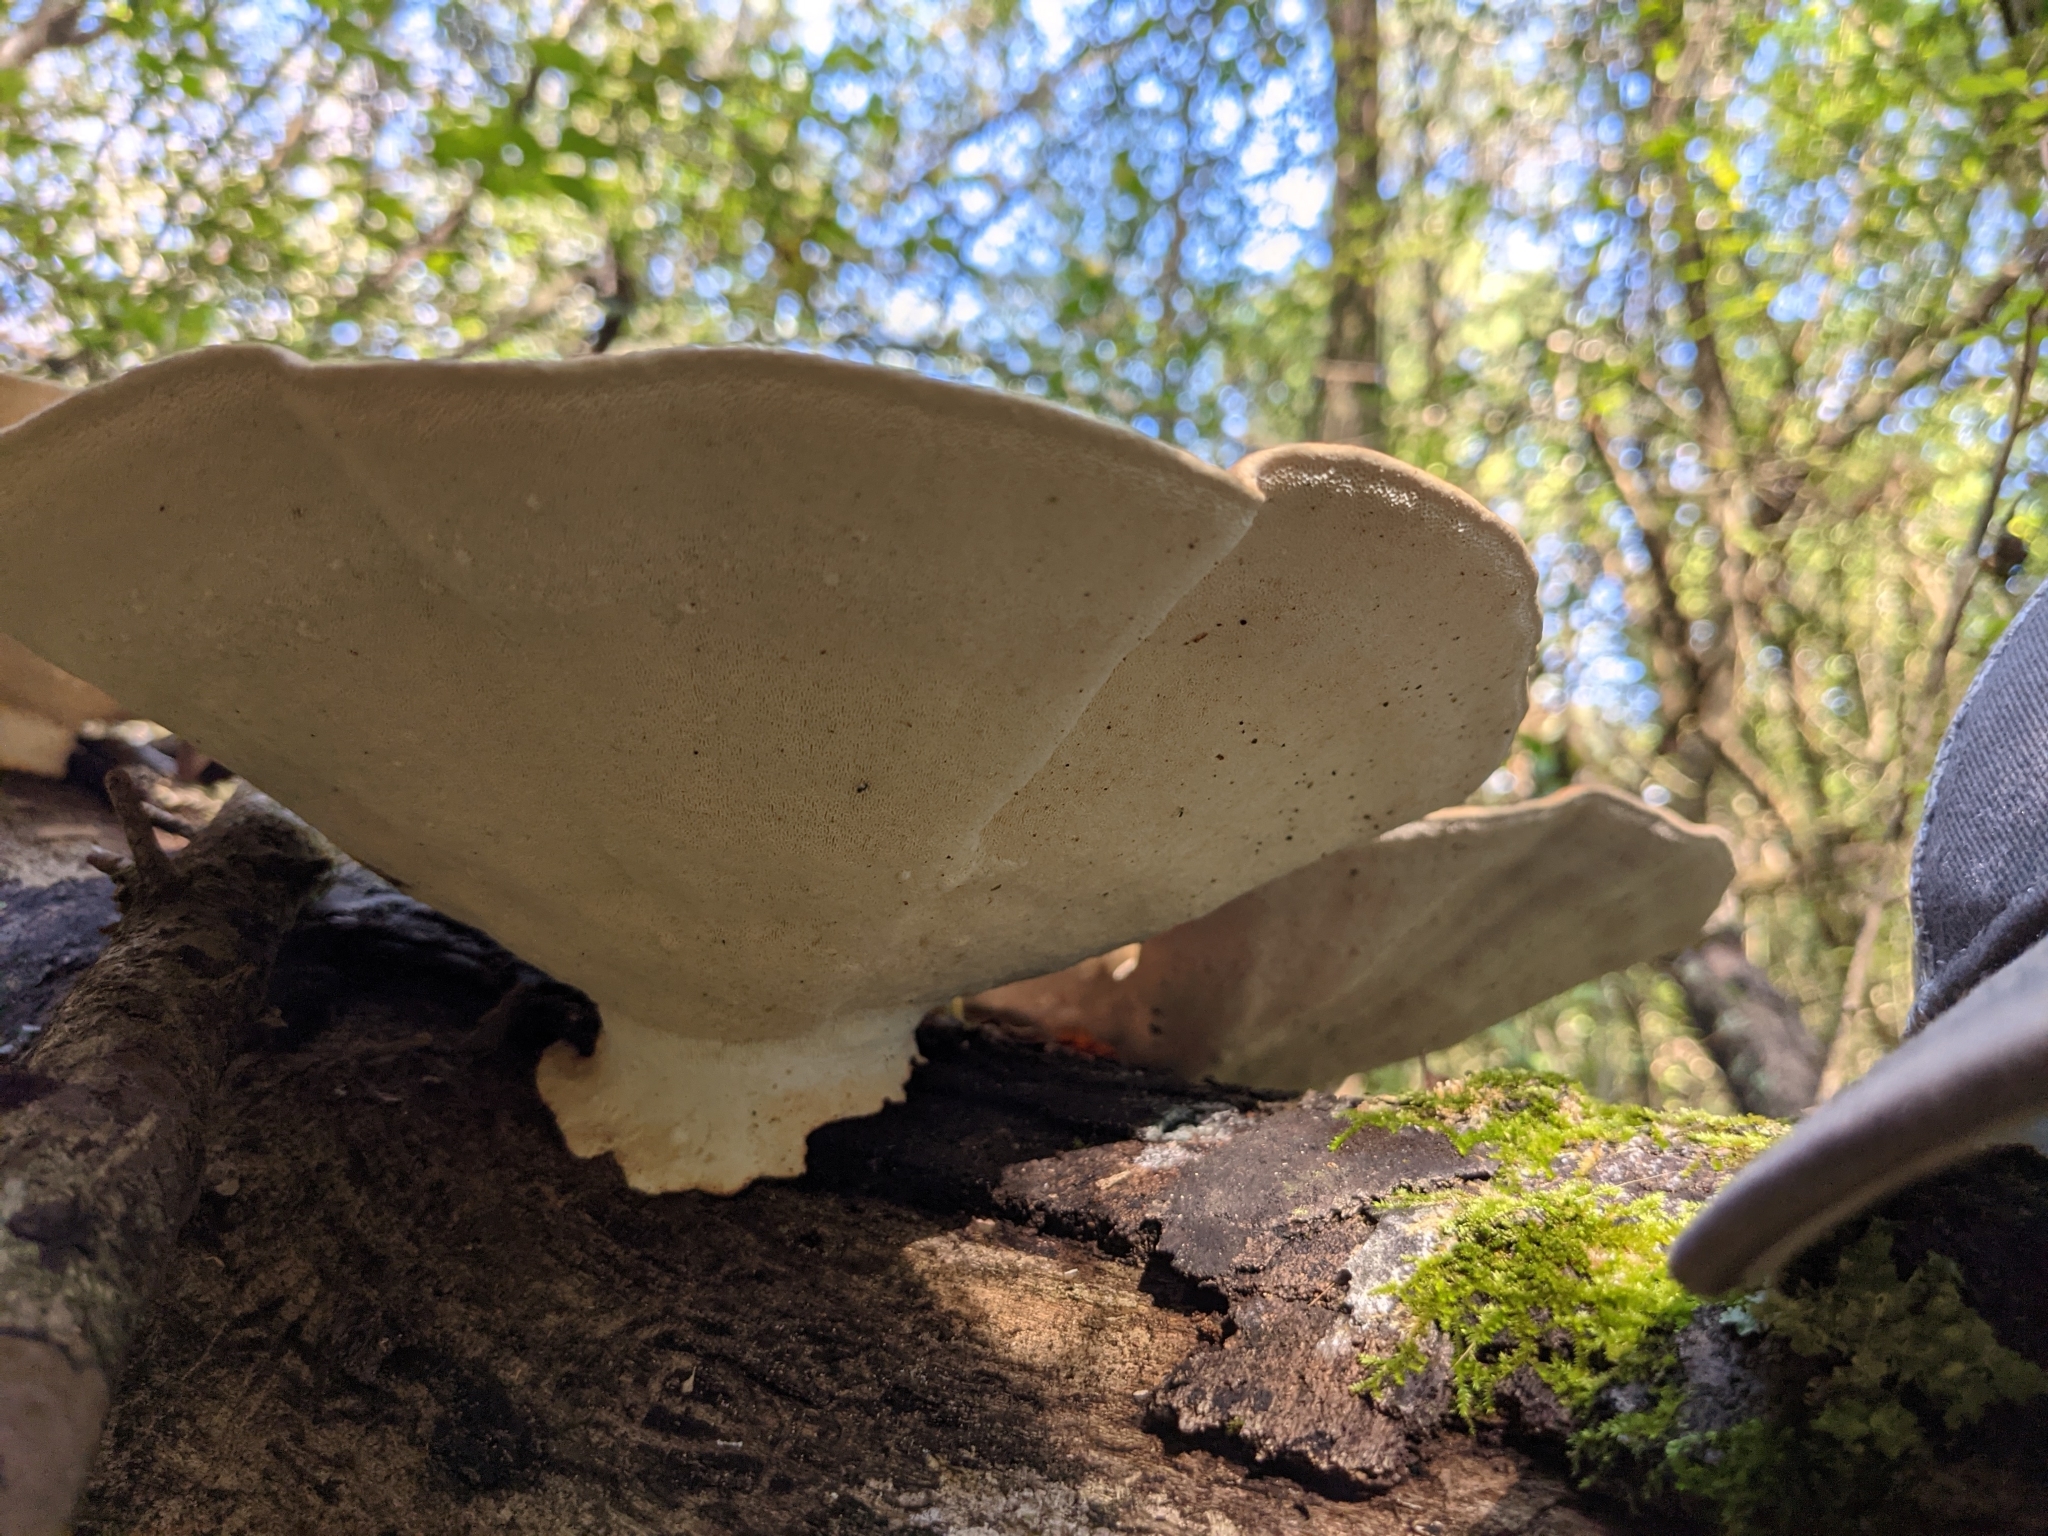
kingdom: Fungi
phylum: Basidiomycota
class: Agaricomycetes
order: Polyporales
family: Polyporaceae
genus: Trametes
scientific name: Trametes
